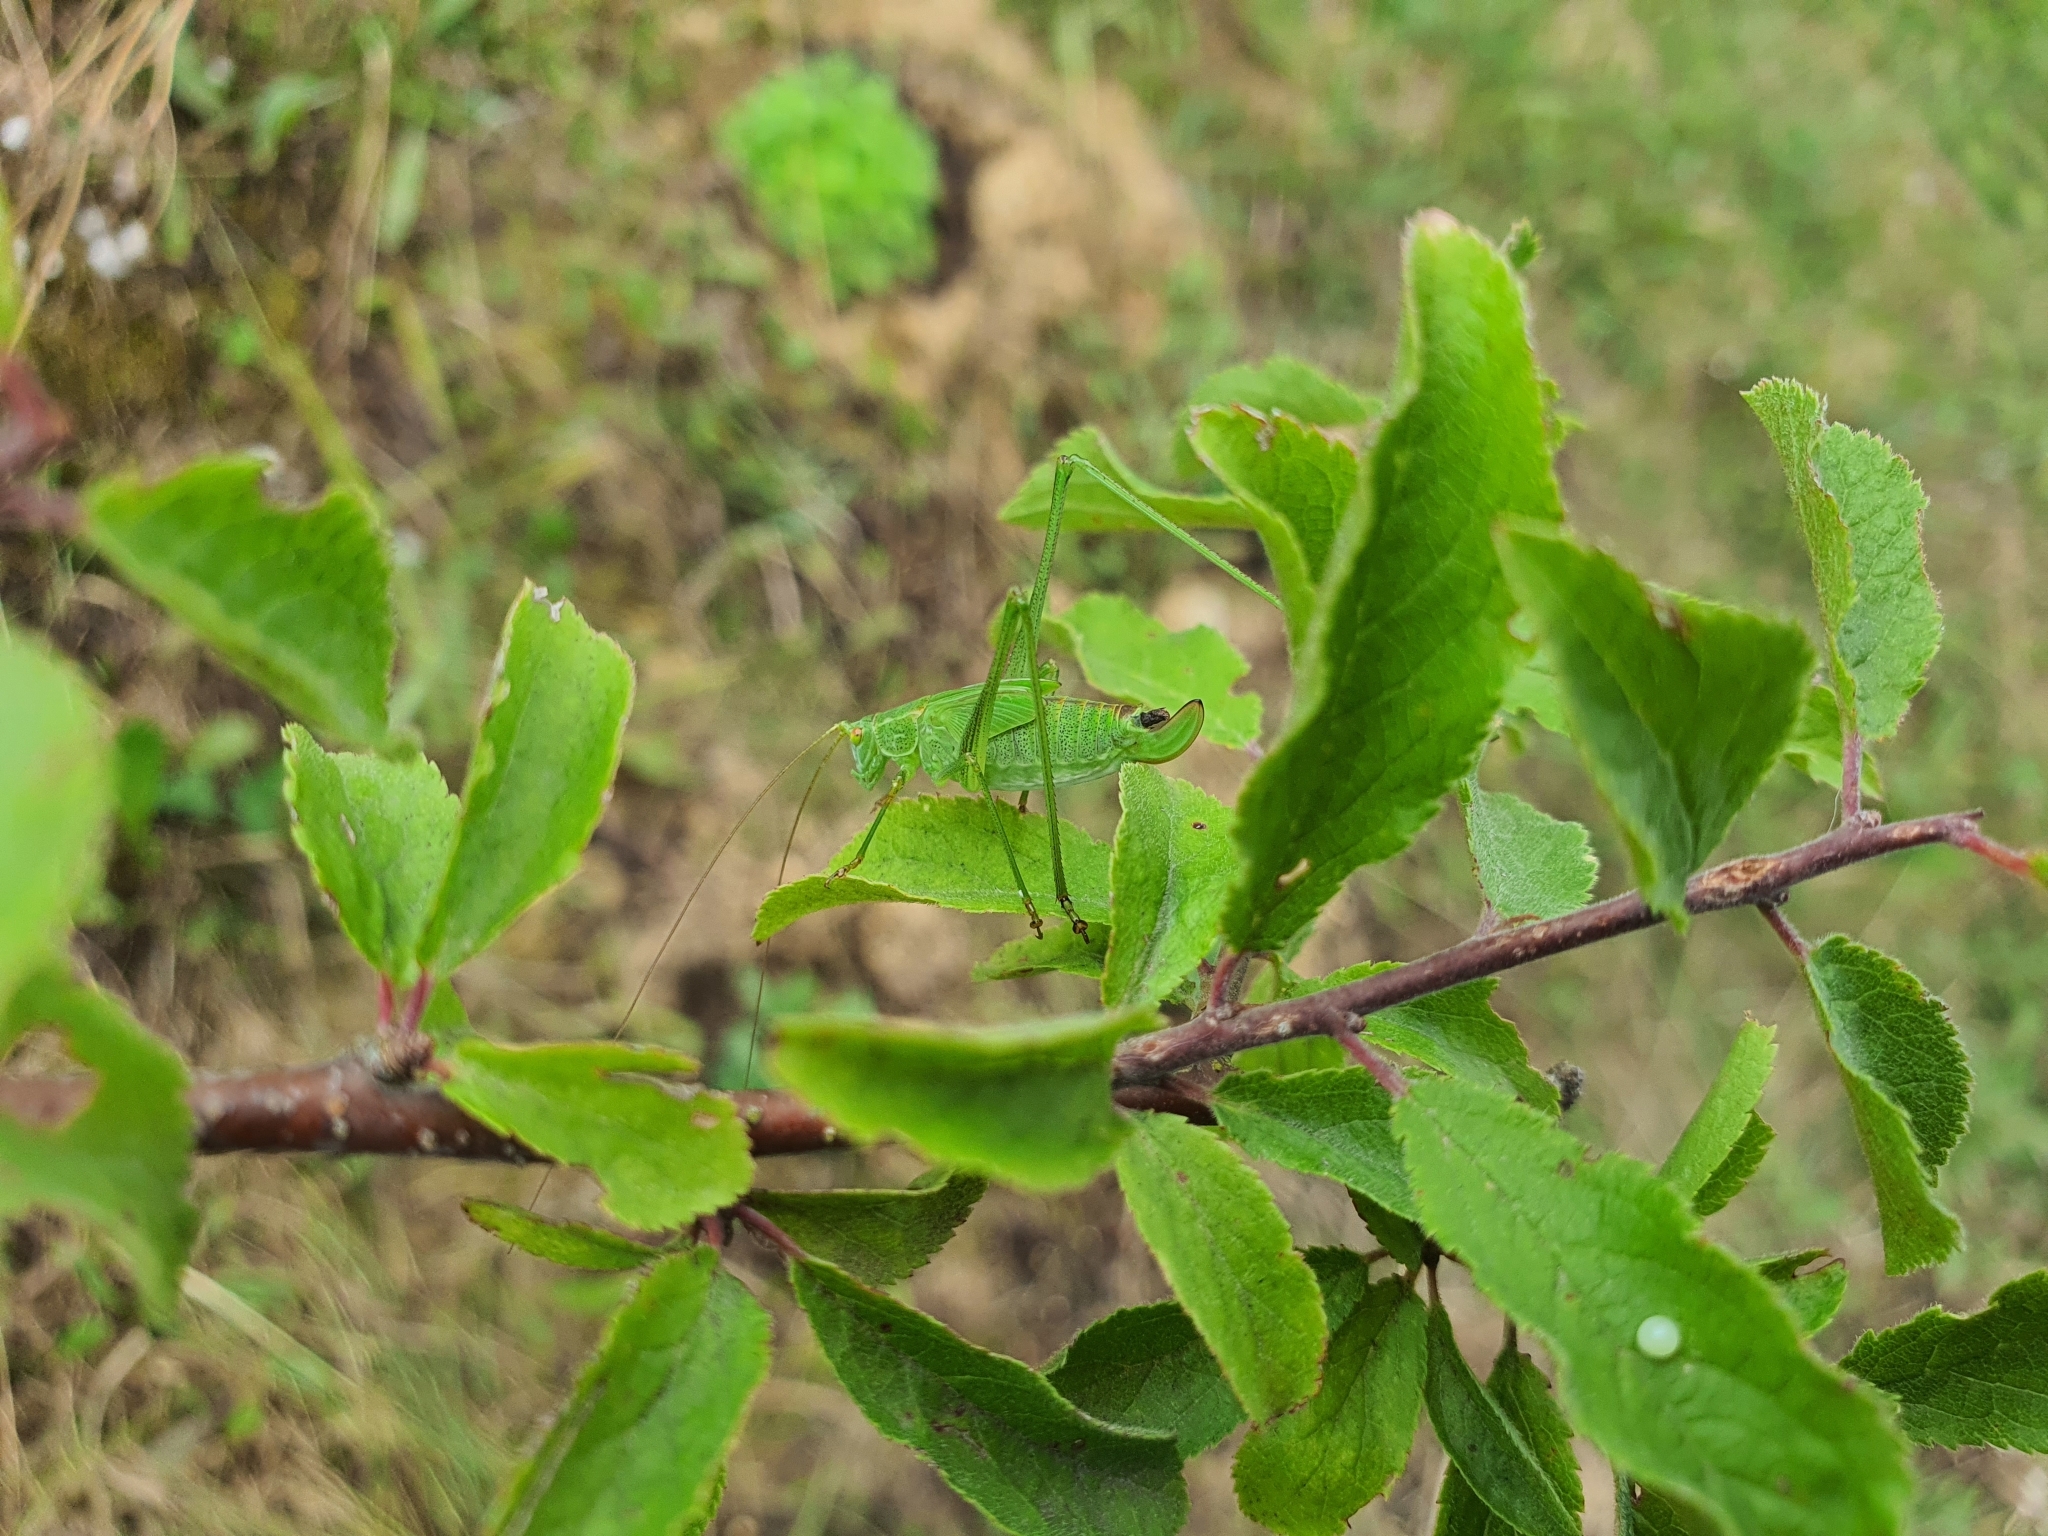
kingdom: Animalia
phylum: Arthropoda
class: Insecta
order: Orthoptera
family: Tettigoniidae
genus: Phaneroptera
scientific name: Phaneroptera falcata
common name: Sickle-bearing bush-cricket
